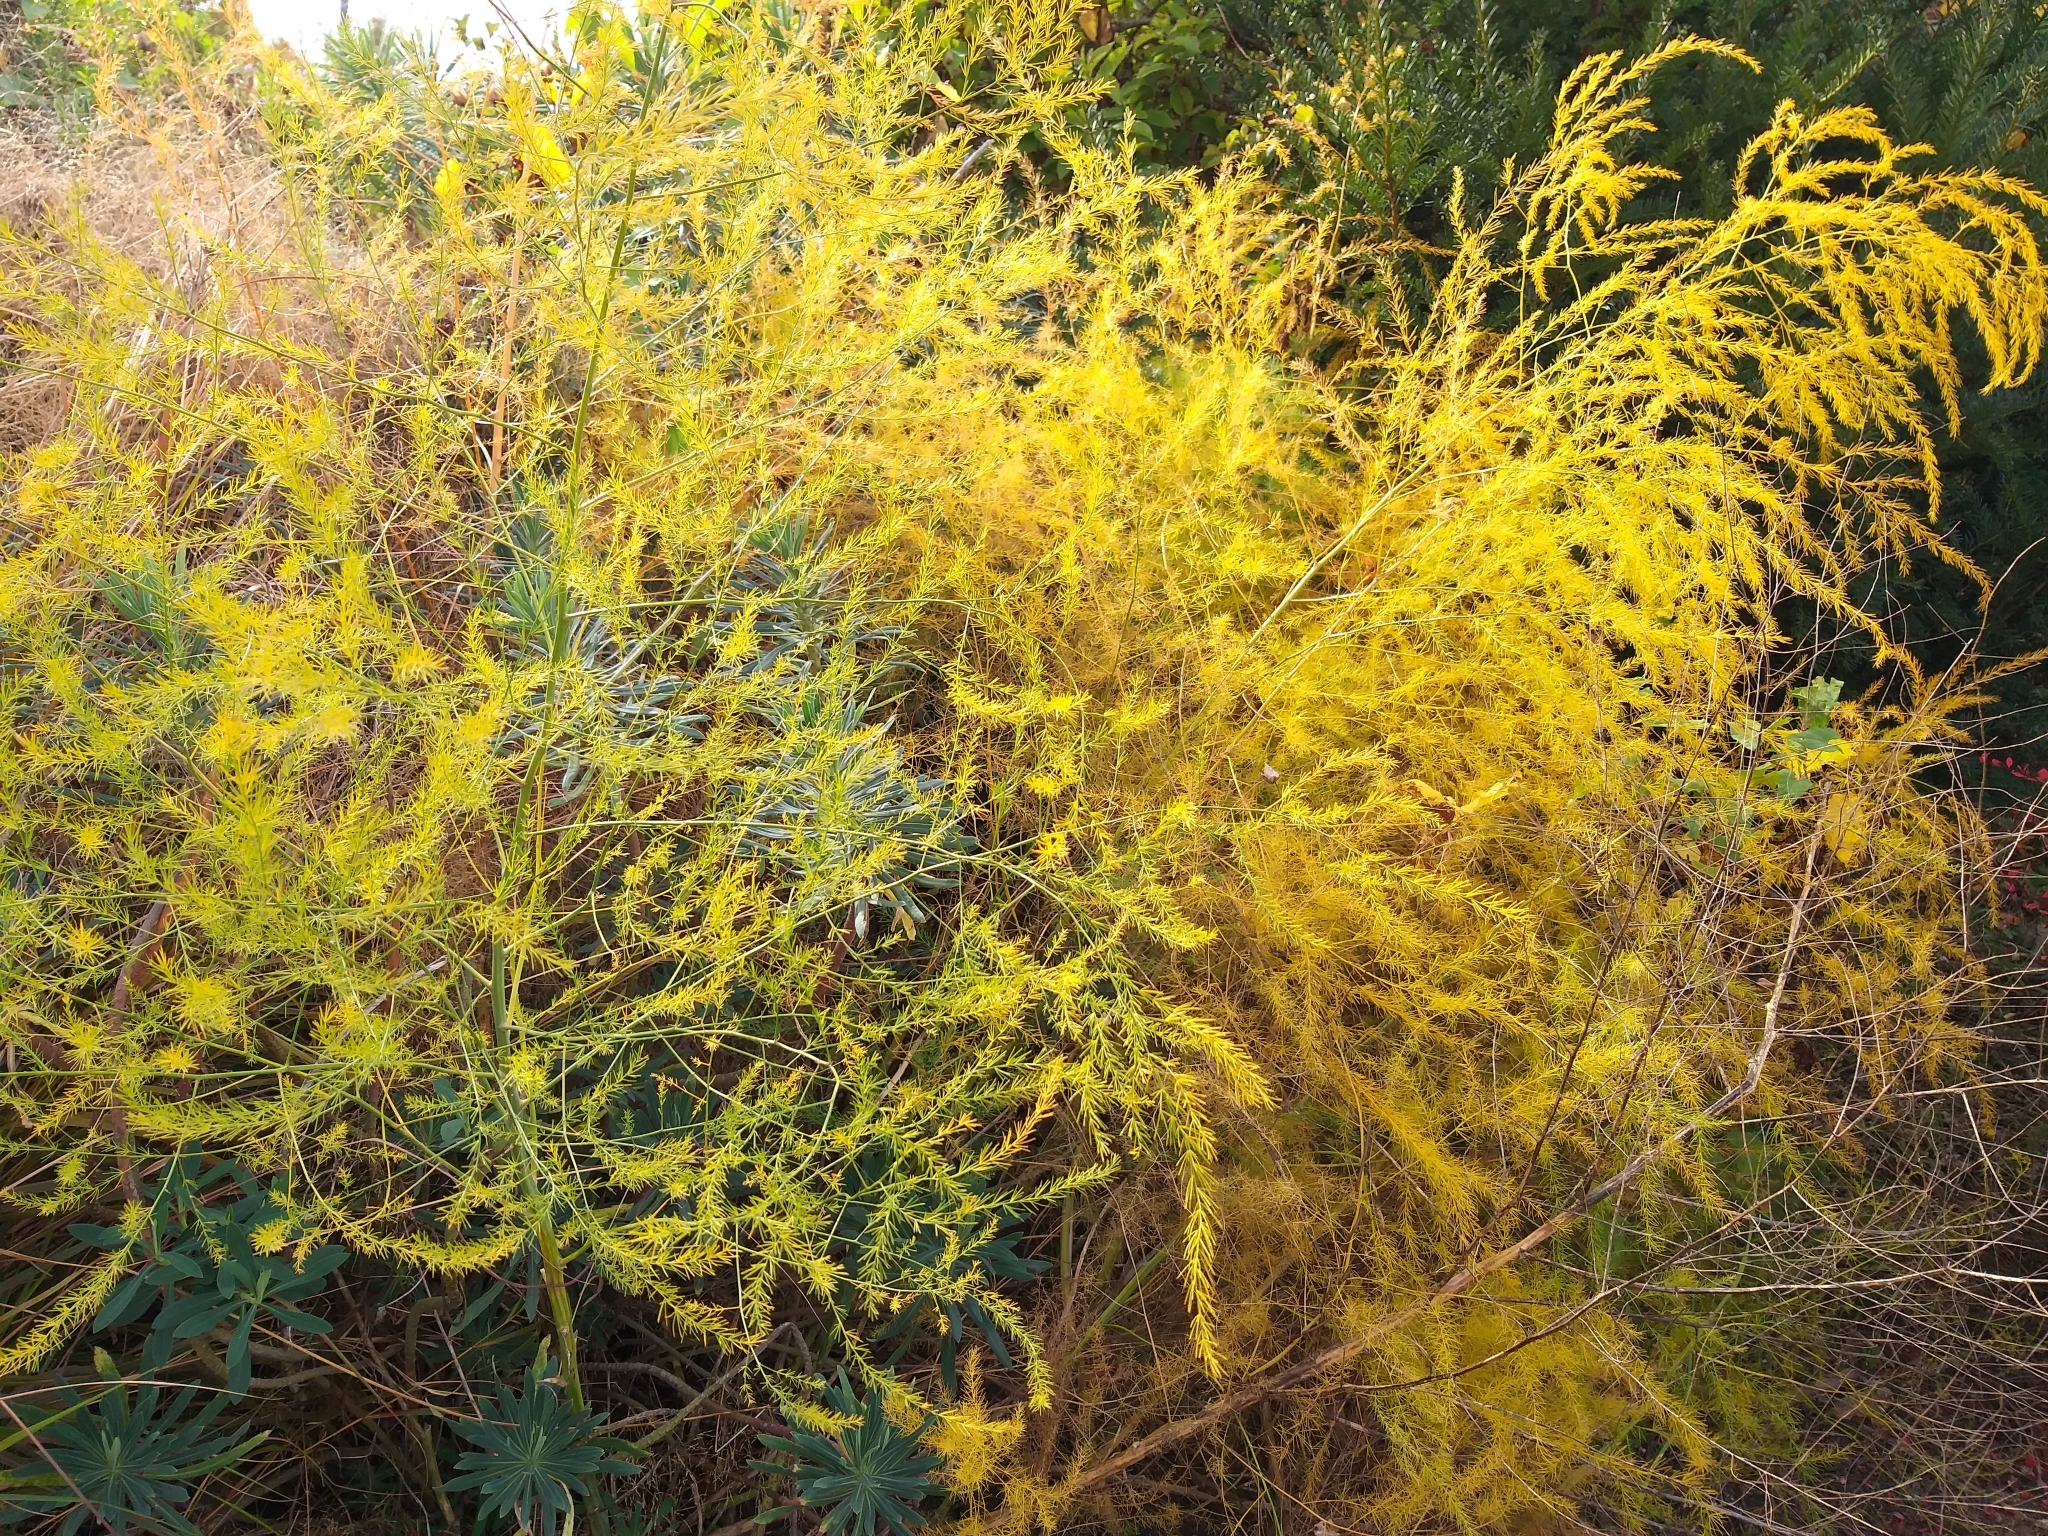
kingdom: Plantae
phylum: Tracheophyta
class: Liliopsida
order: Asparagales
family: Asparagaceae
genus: Asparagus
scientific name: Asparagus officinalis
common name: Garden asparagus
